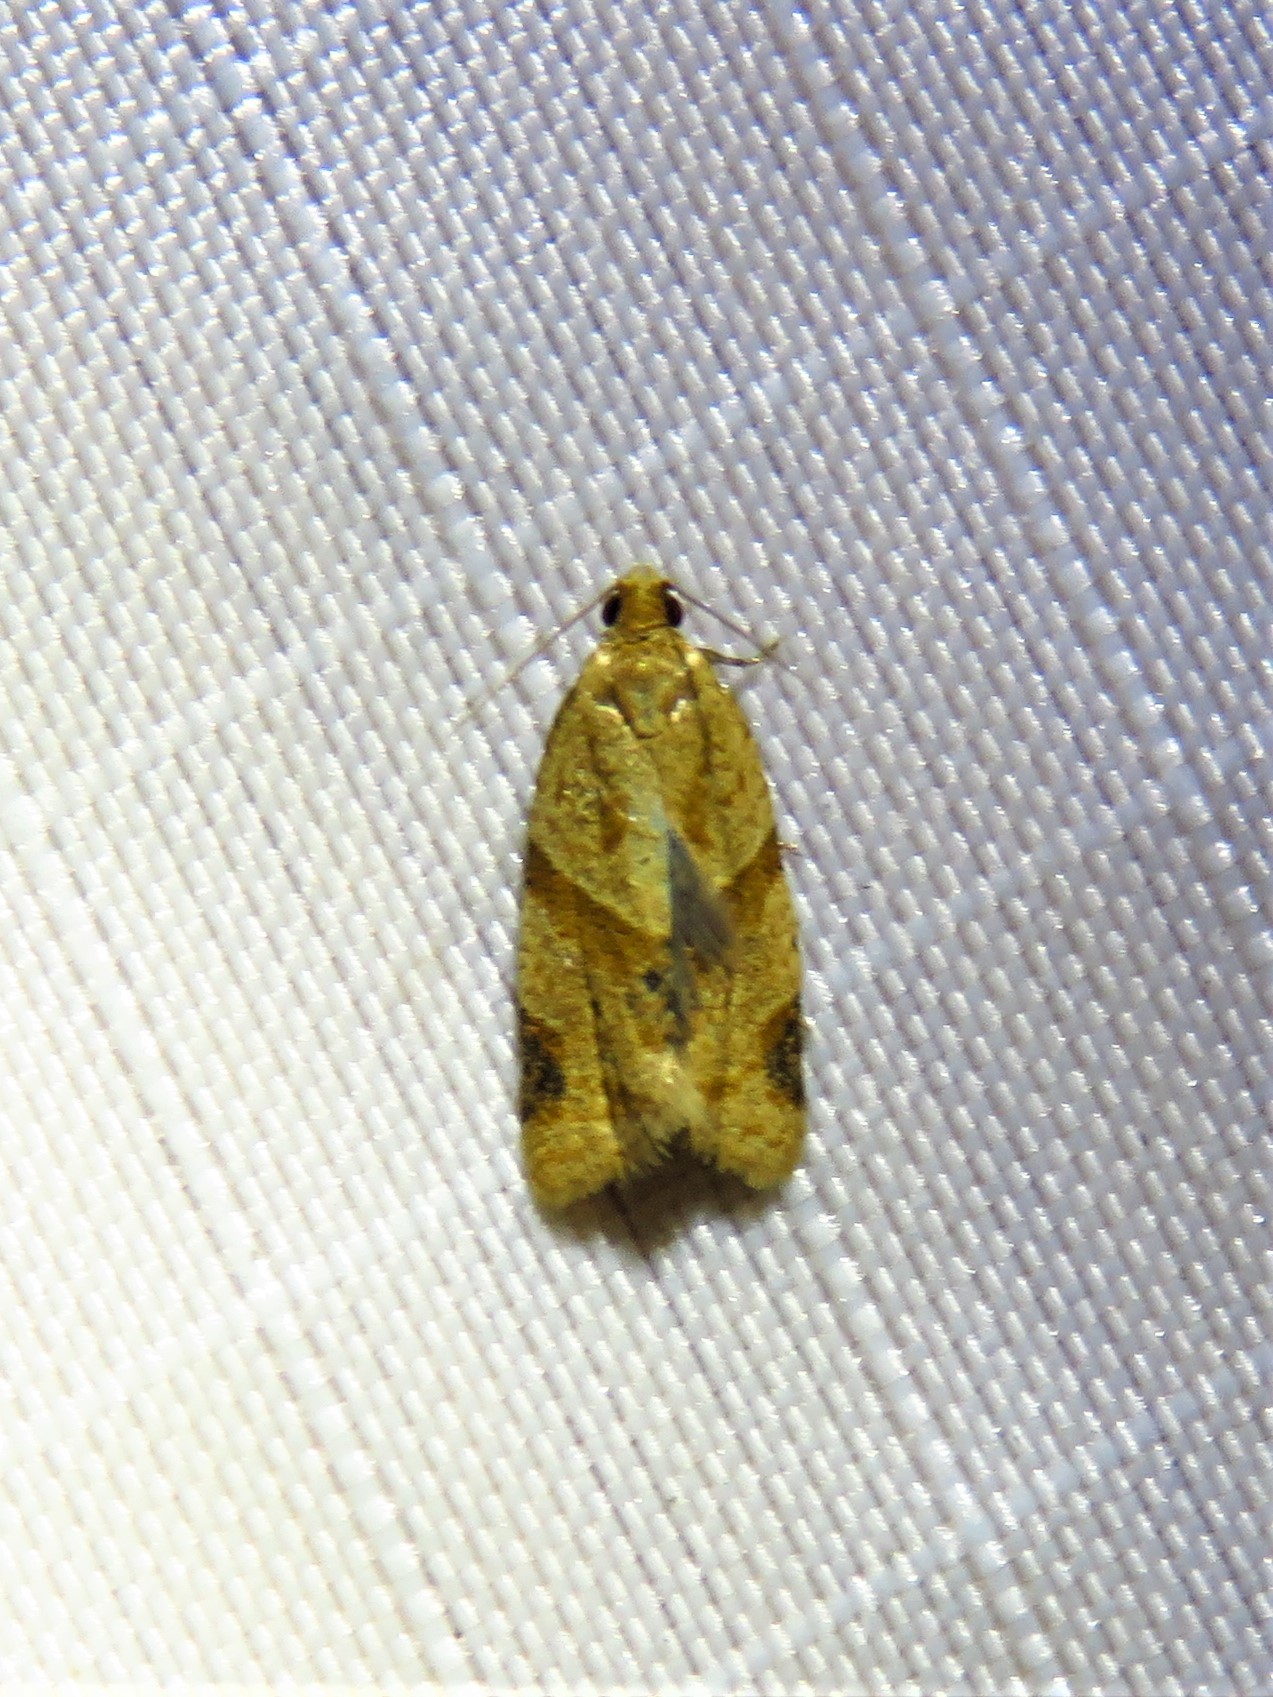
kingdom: Animalia
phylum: Arthropoda
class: Insecta
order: Lepidoptera
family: Tortricidae
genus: Clepsis
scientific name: Clepsis peritana
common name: Garden tortrix
